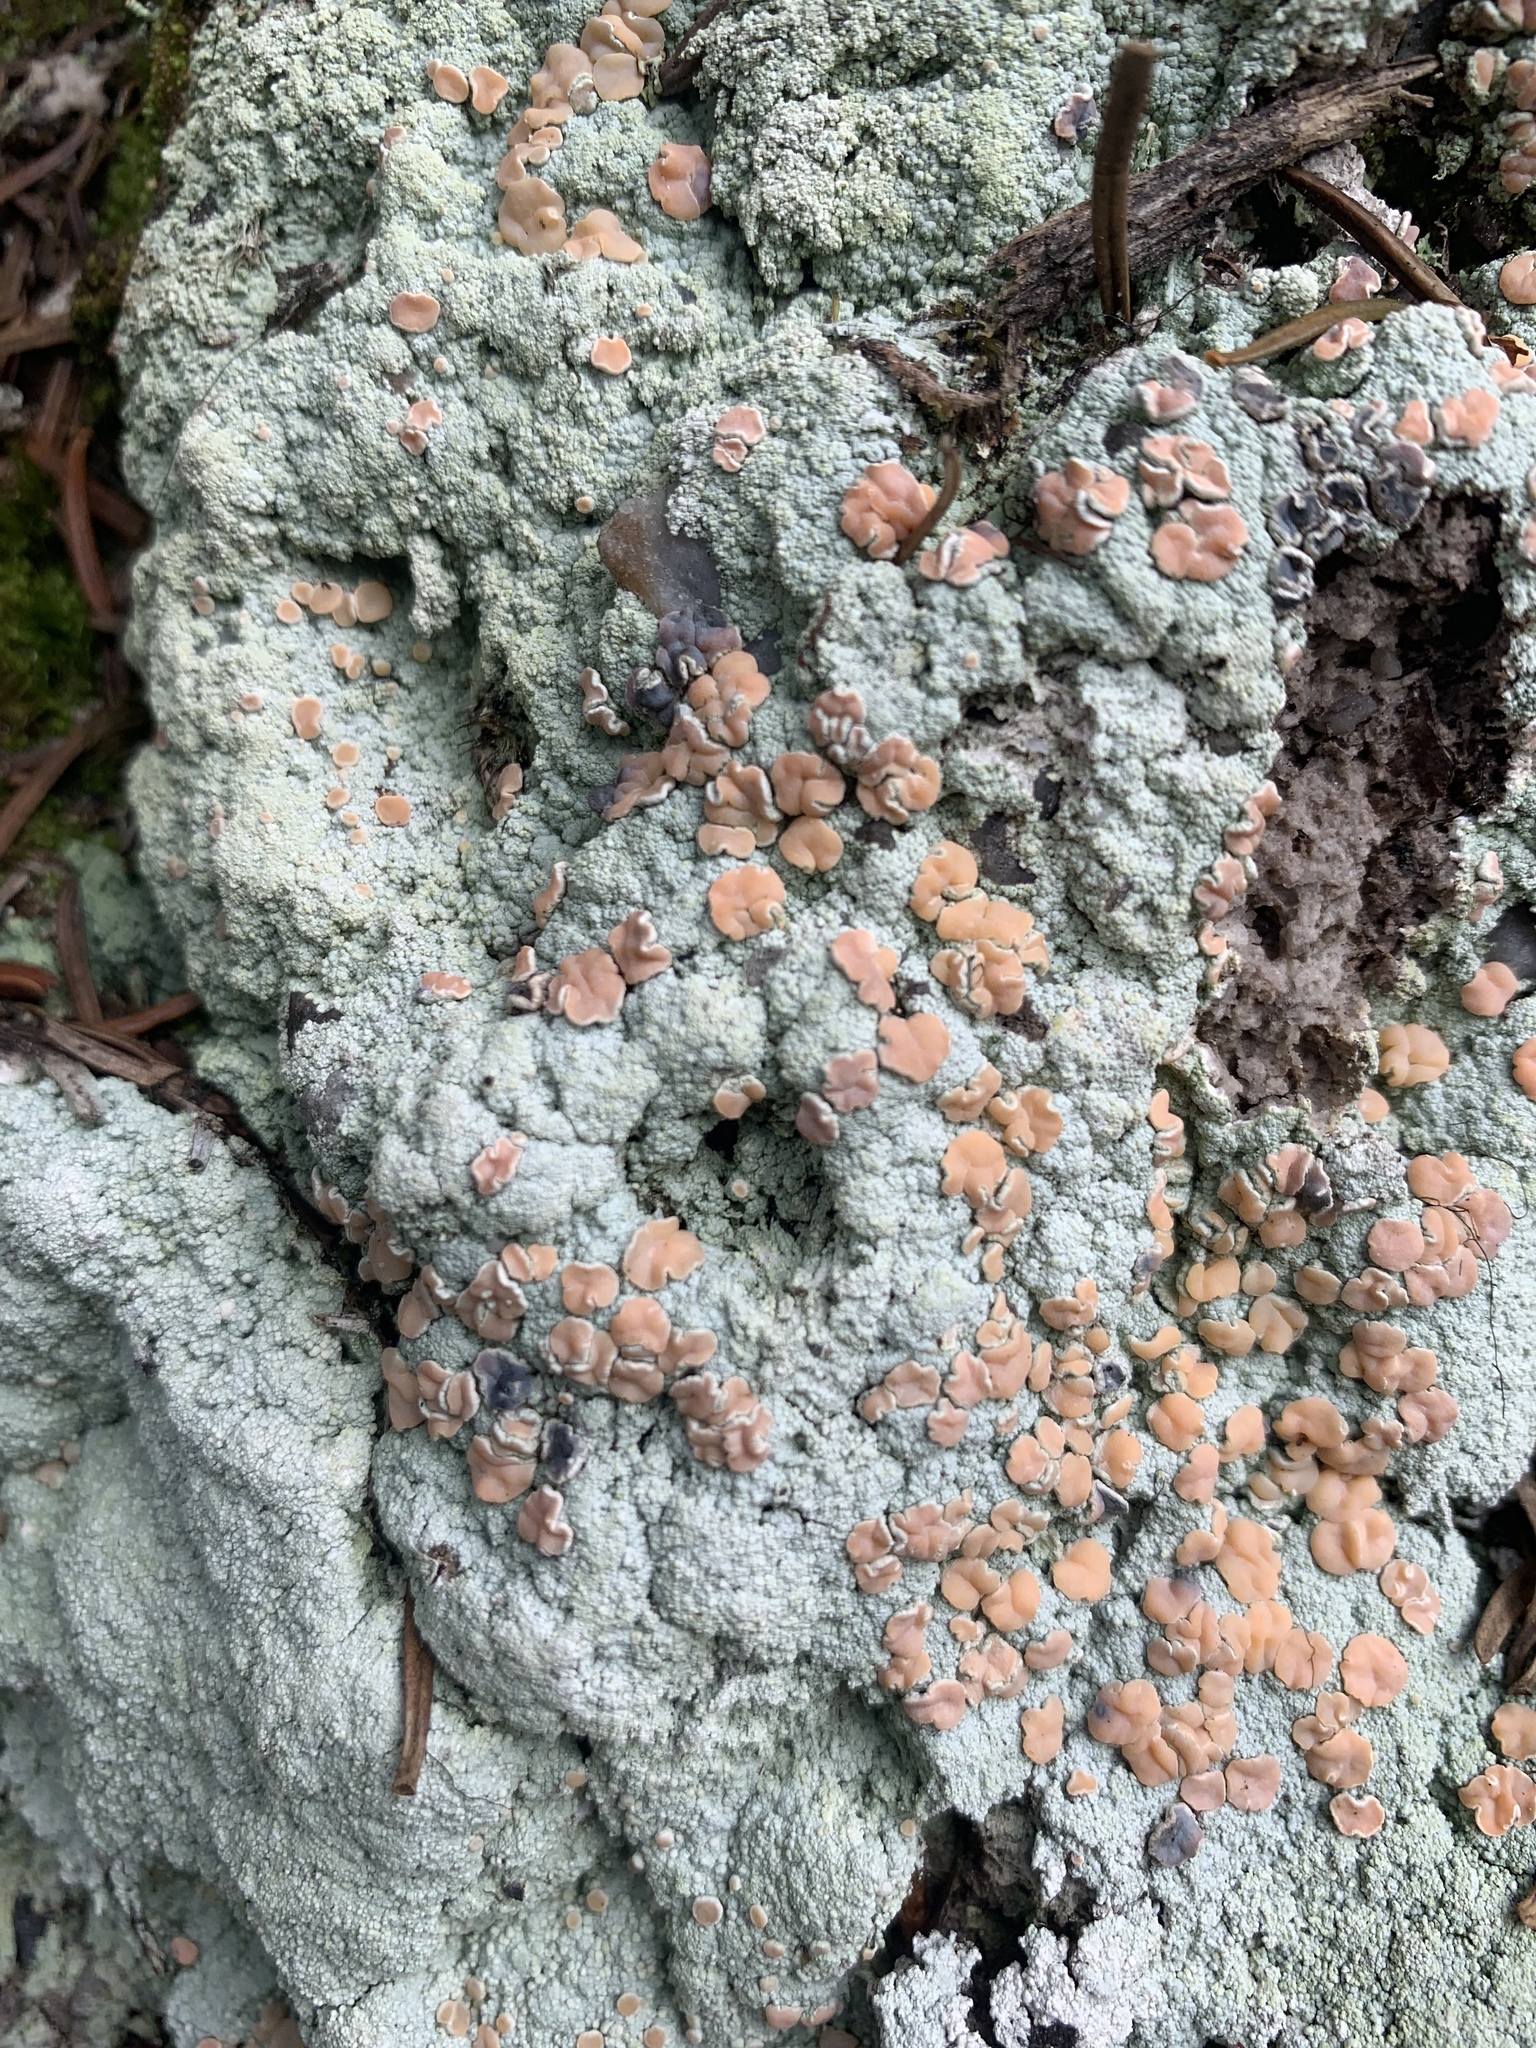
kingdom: Fungi
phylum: Ascomycota
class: Lecanoromycetes
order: Pertusariales
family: Icmadophilaceae
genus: Icmadophila
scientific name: Icmadophila ericetorum
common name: Candy lichen
